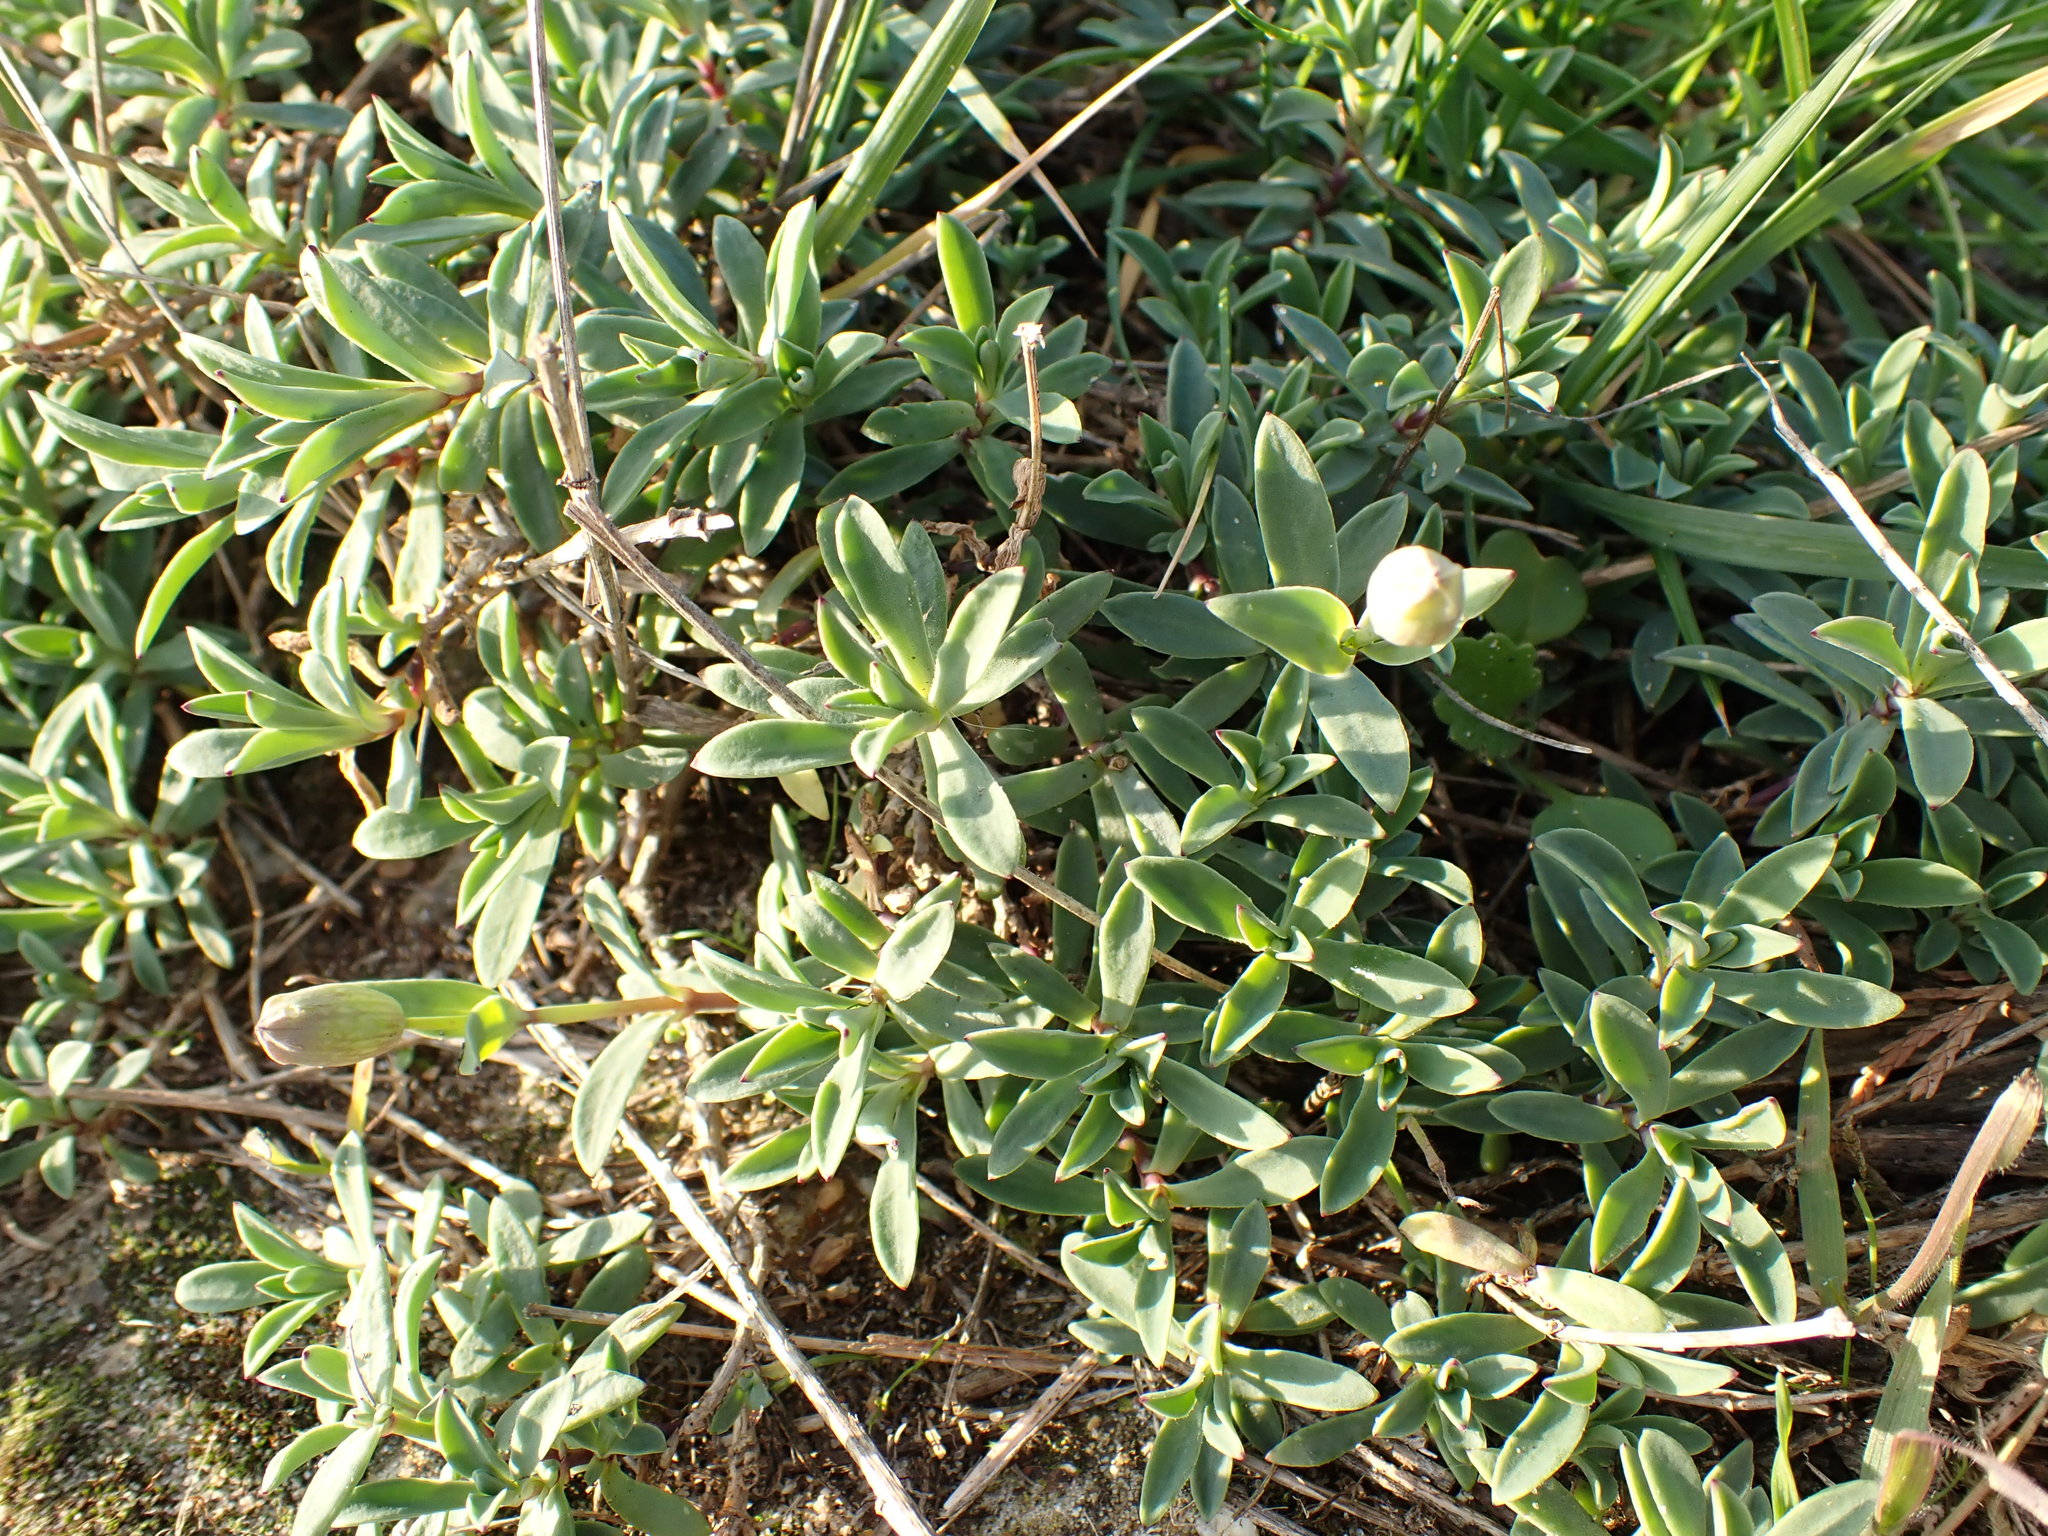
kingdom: Plantae
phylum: Tracheophyta
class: Magnoliopsida
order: Caryophyllales
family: Caryophyllaceae
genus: Silene
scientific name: Silene uniflora
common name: Sea campion
